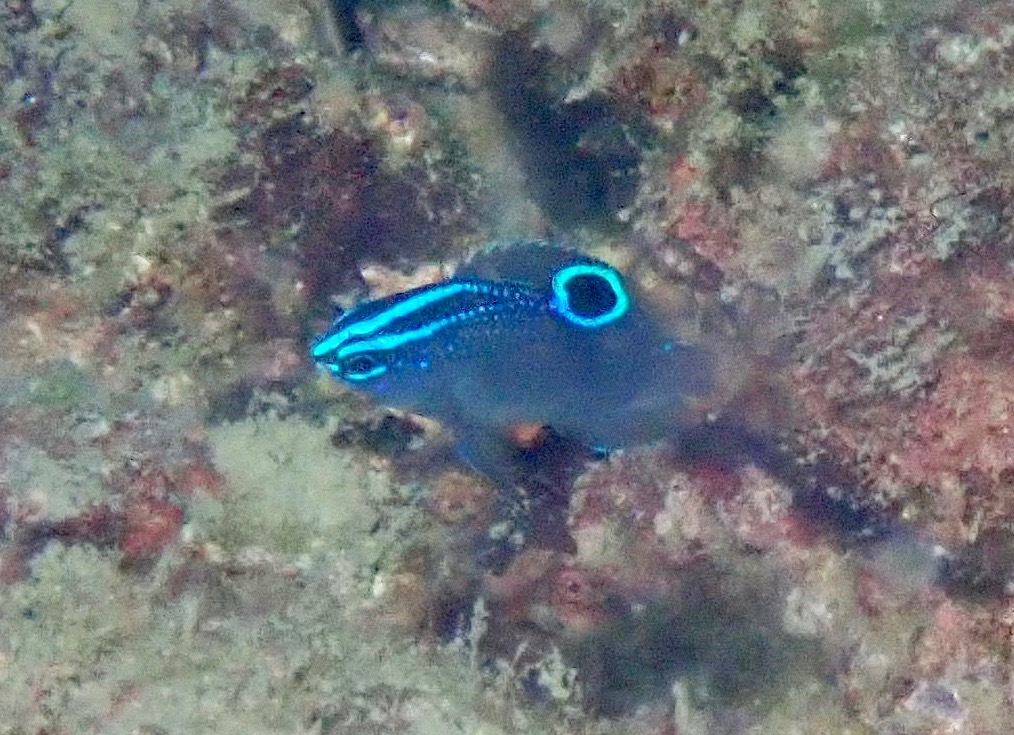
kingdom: Animalia
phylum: Chordata
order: Perciformes
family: Pomacentridae
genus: Pomacentrus
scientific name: Pomacentrus polyspinus
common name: Thai damsel
